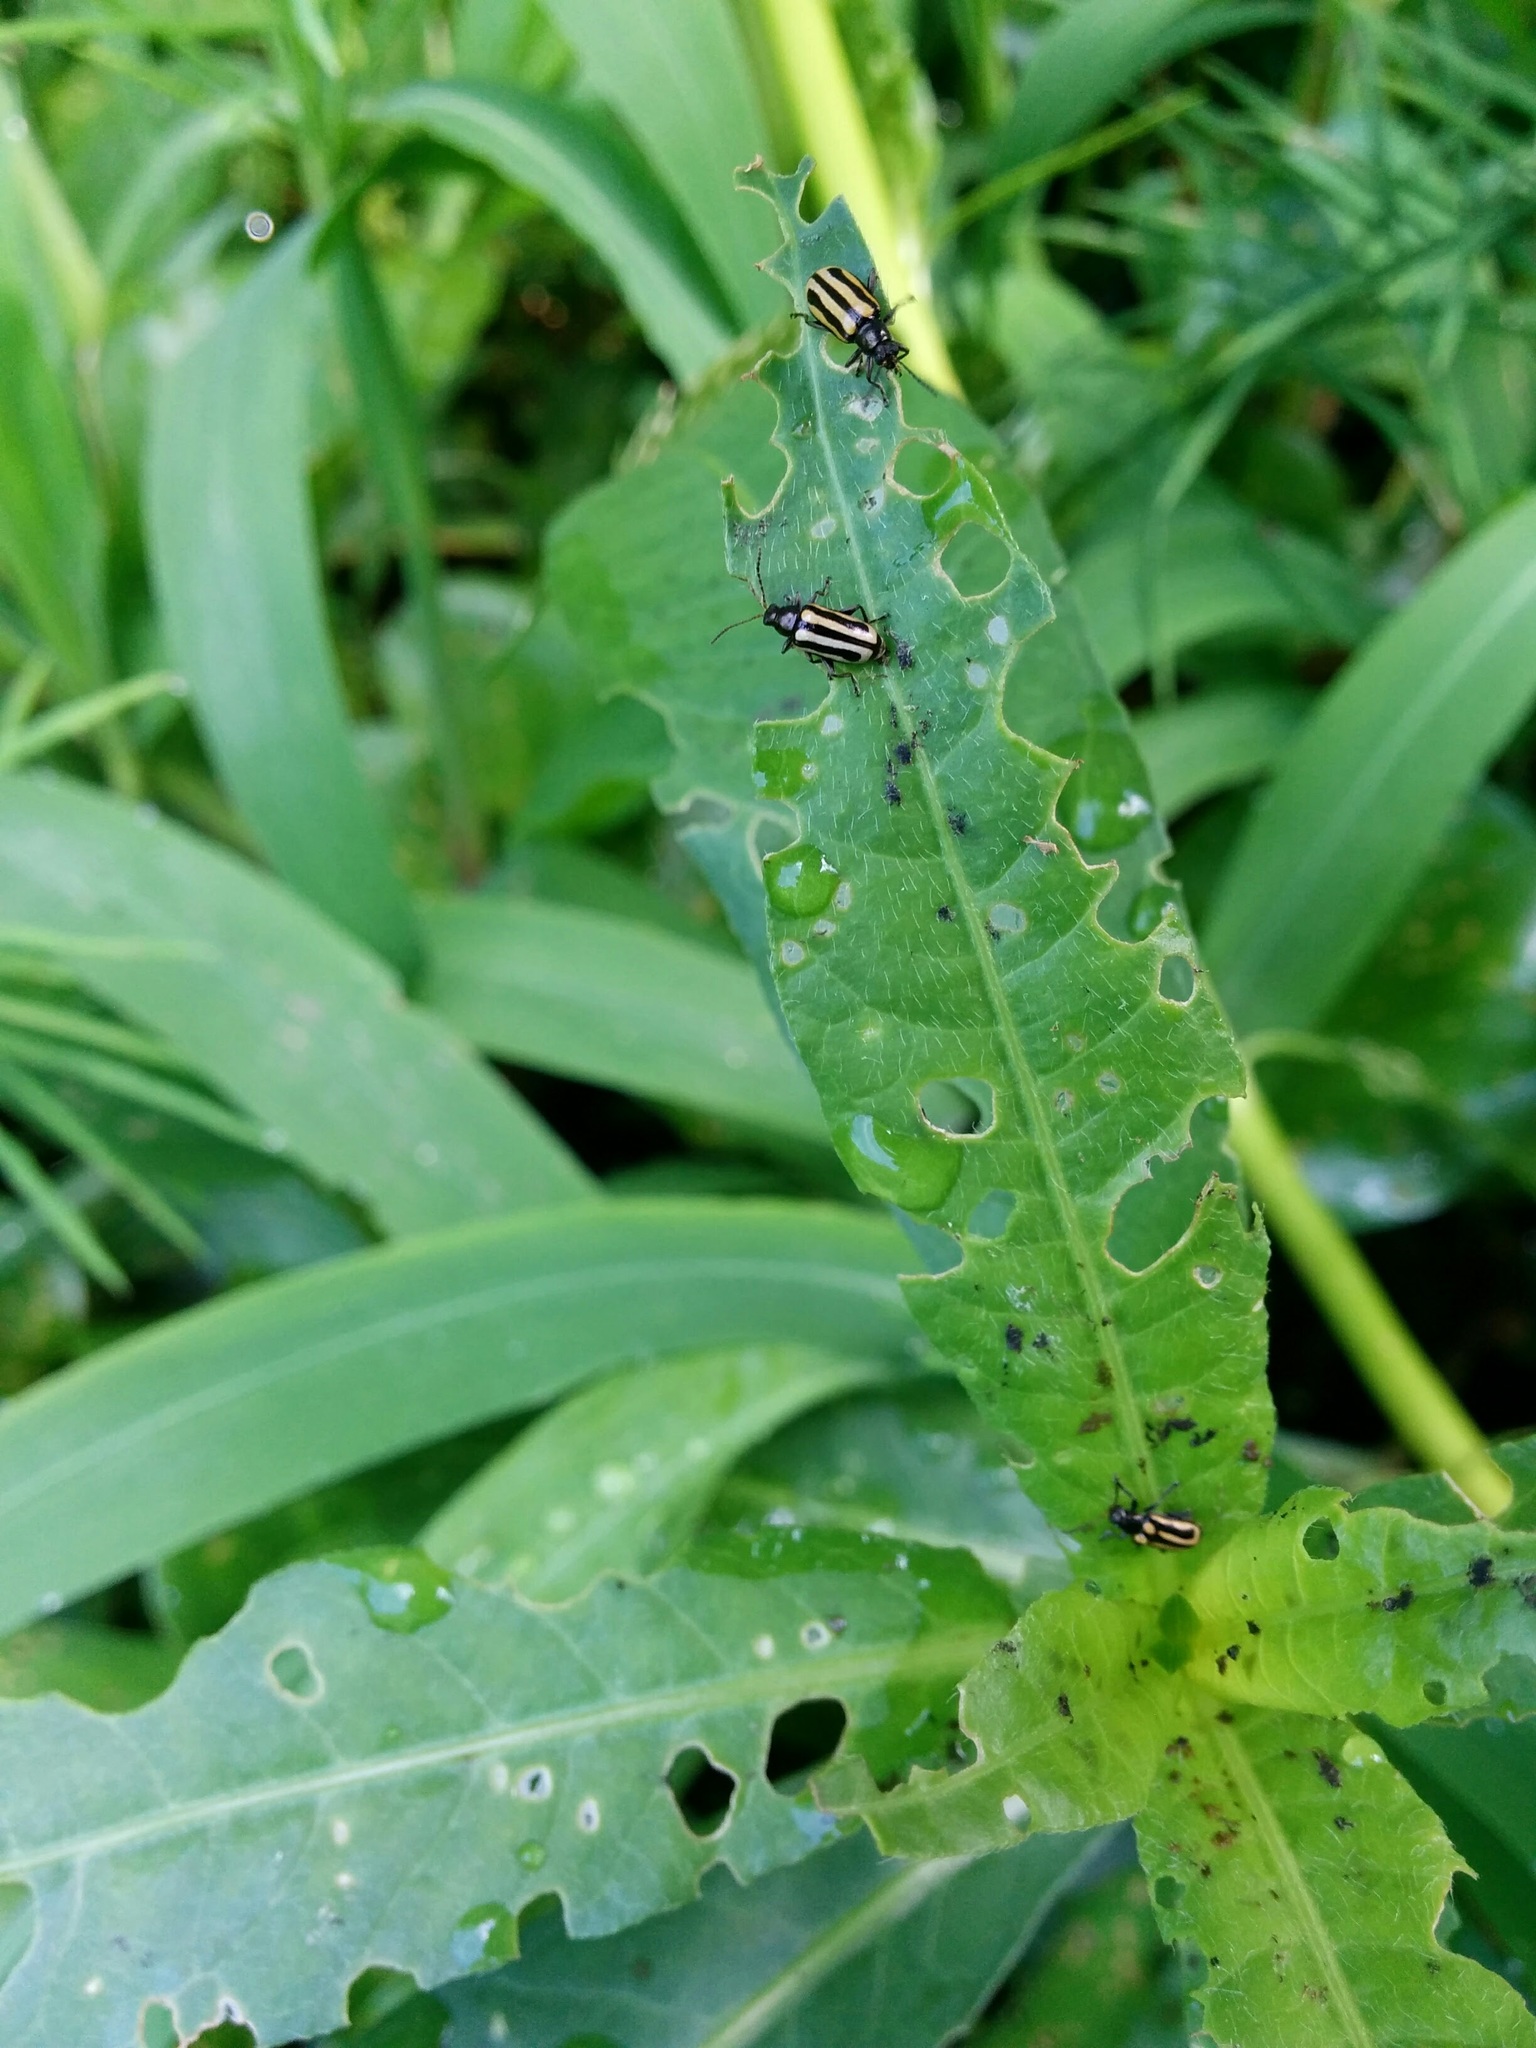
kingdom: Animalia
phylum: Arthropoda
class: Insecta
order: Coleoptera
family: Chrysomelidae
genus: Agasicles
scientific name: Agasicles hygrophila
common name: Alligatorweed flea beetle
